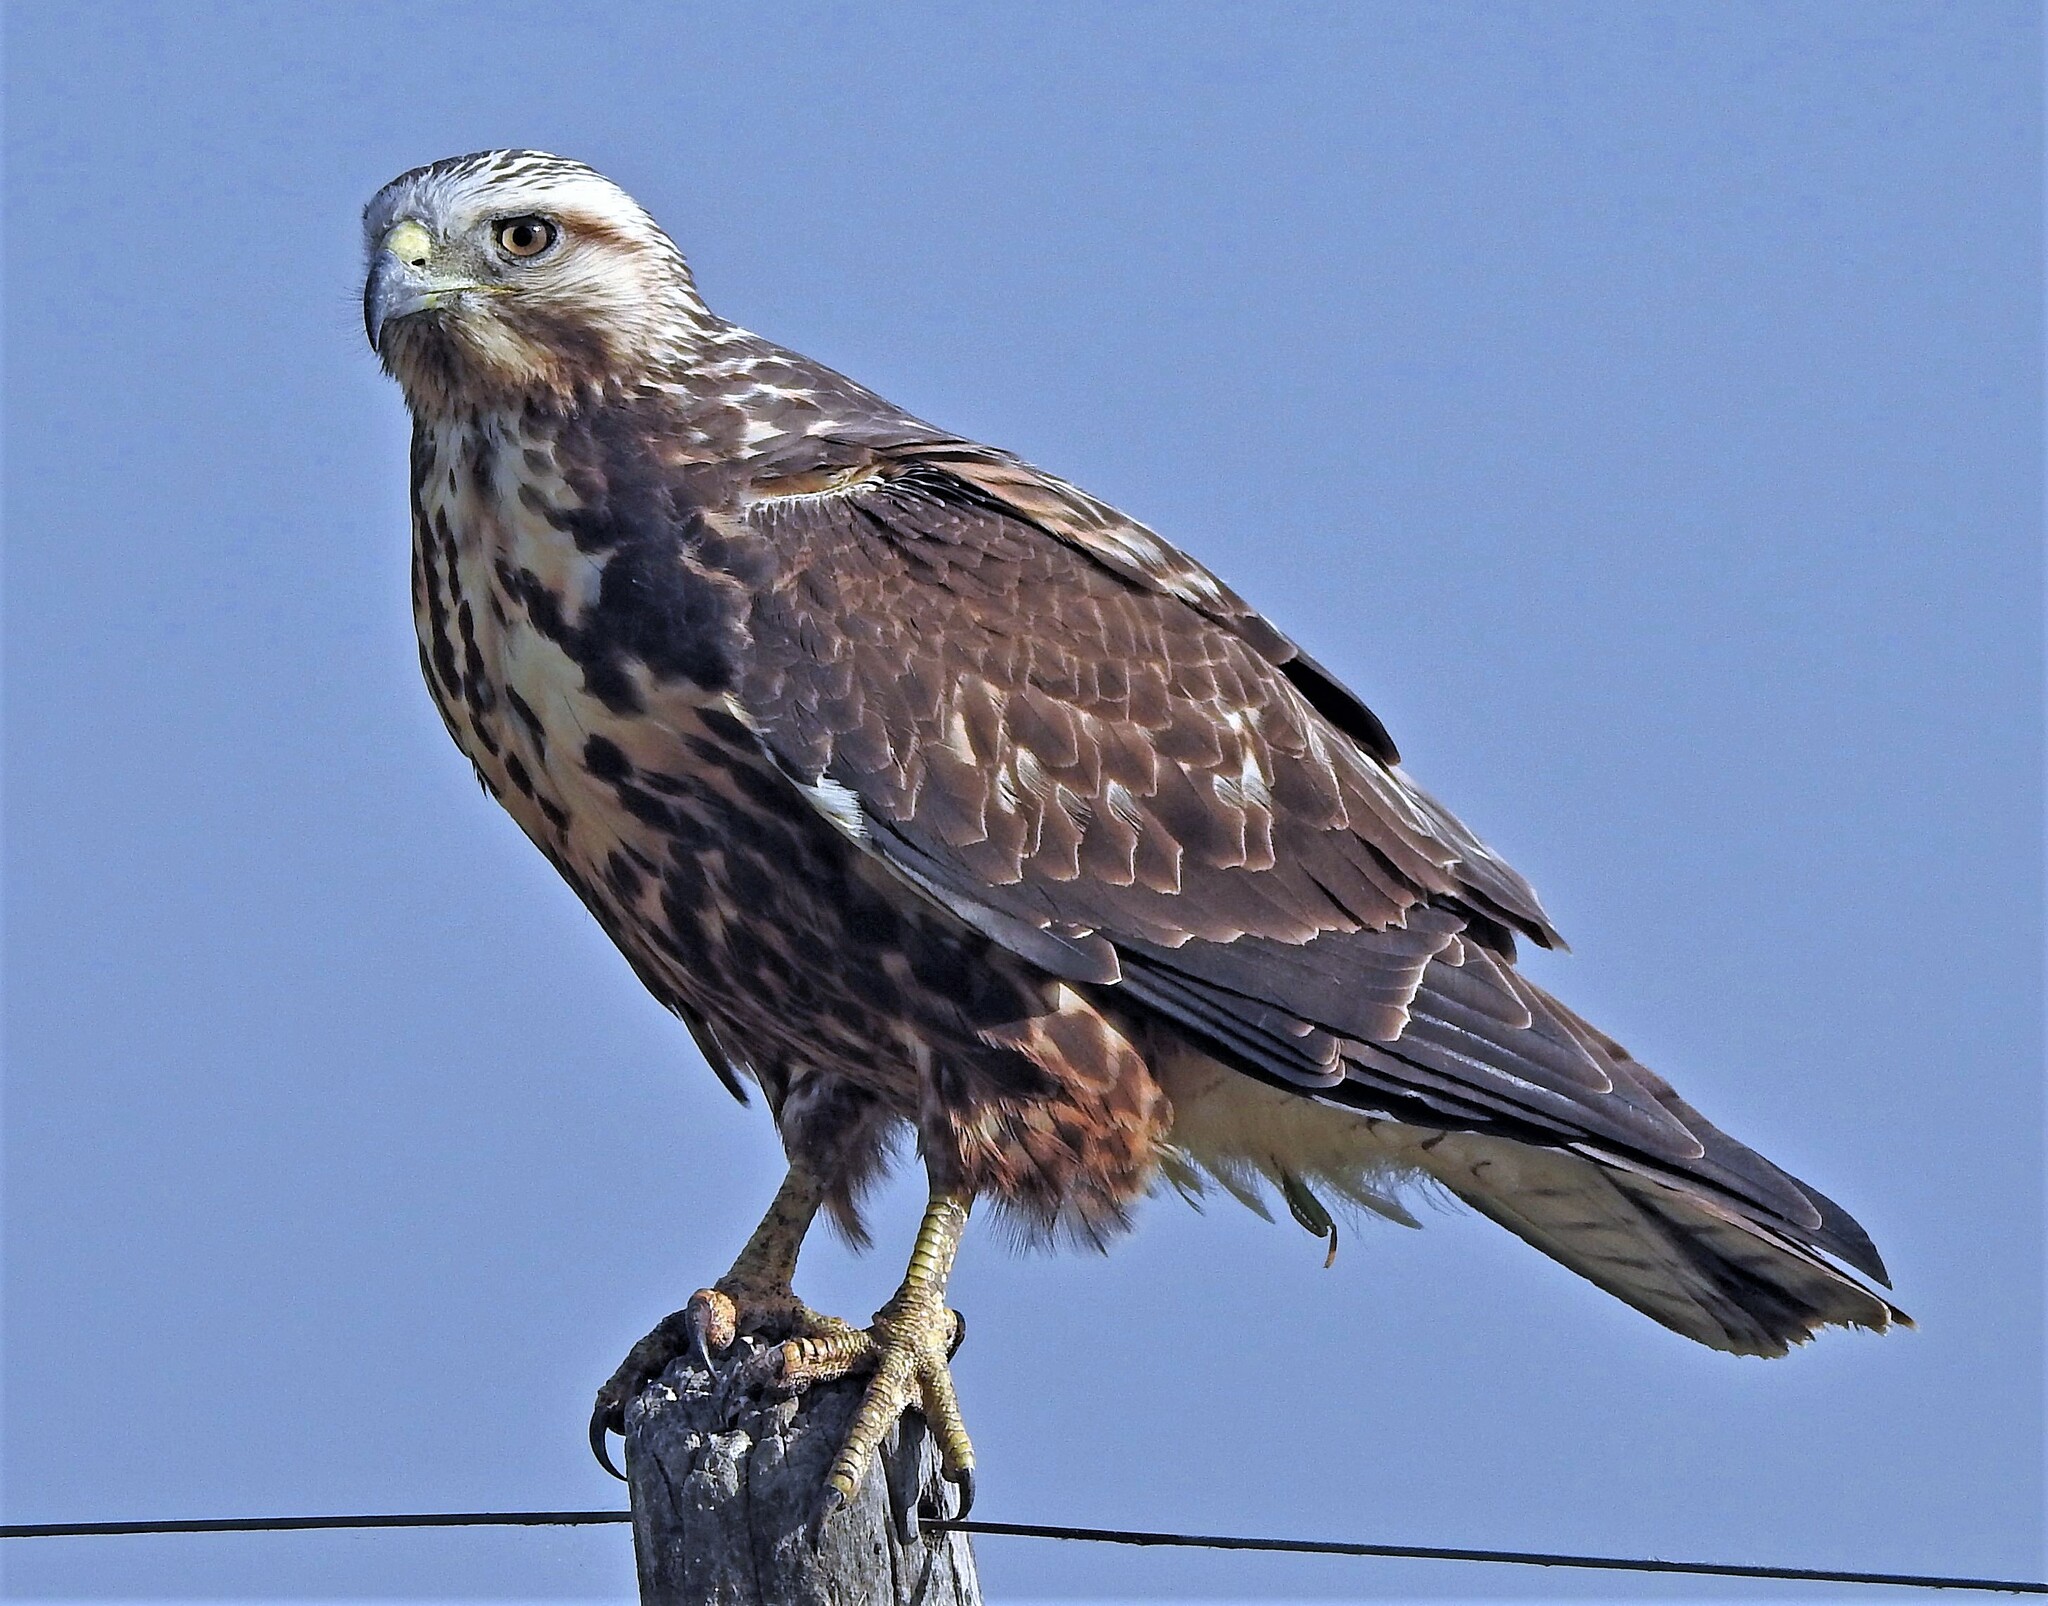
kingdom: Animalia
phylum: Chordata
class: Aves
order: Accipitriformes
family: Accipitridae
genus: Buteo
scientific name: Buteo swainsoni
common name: Swainson's hawk
